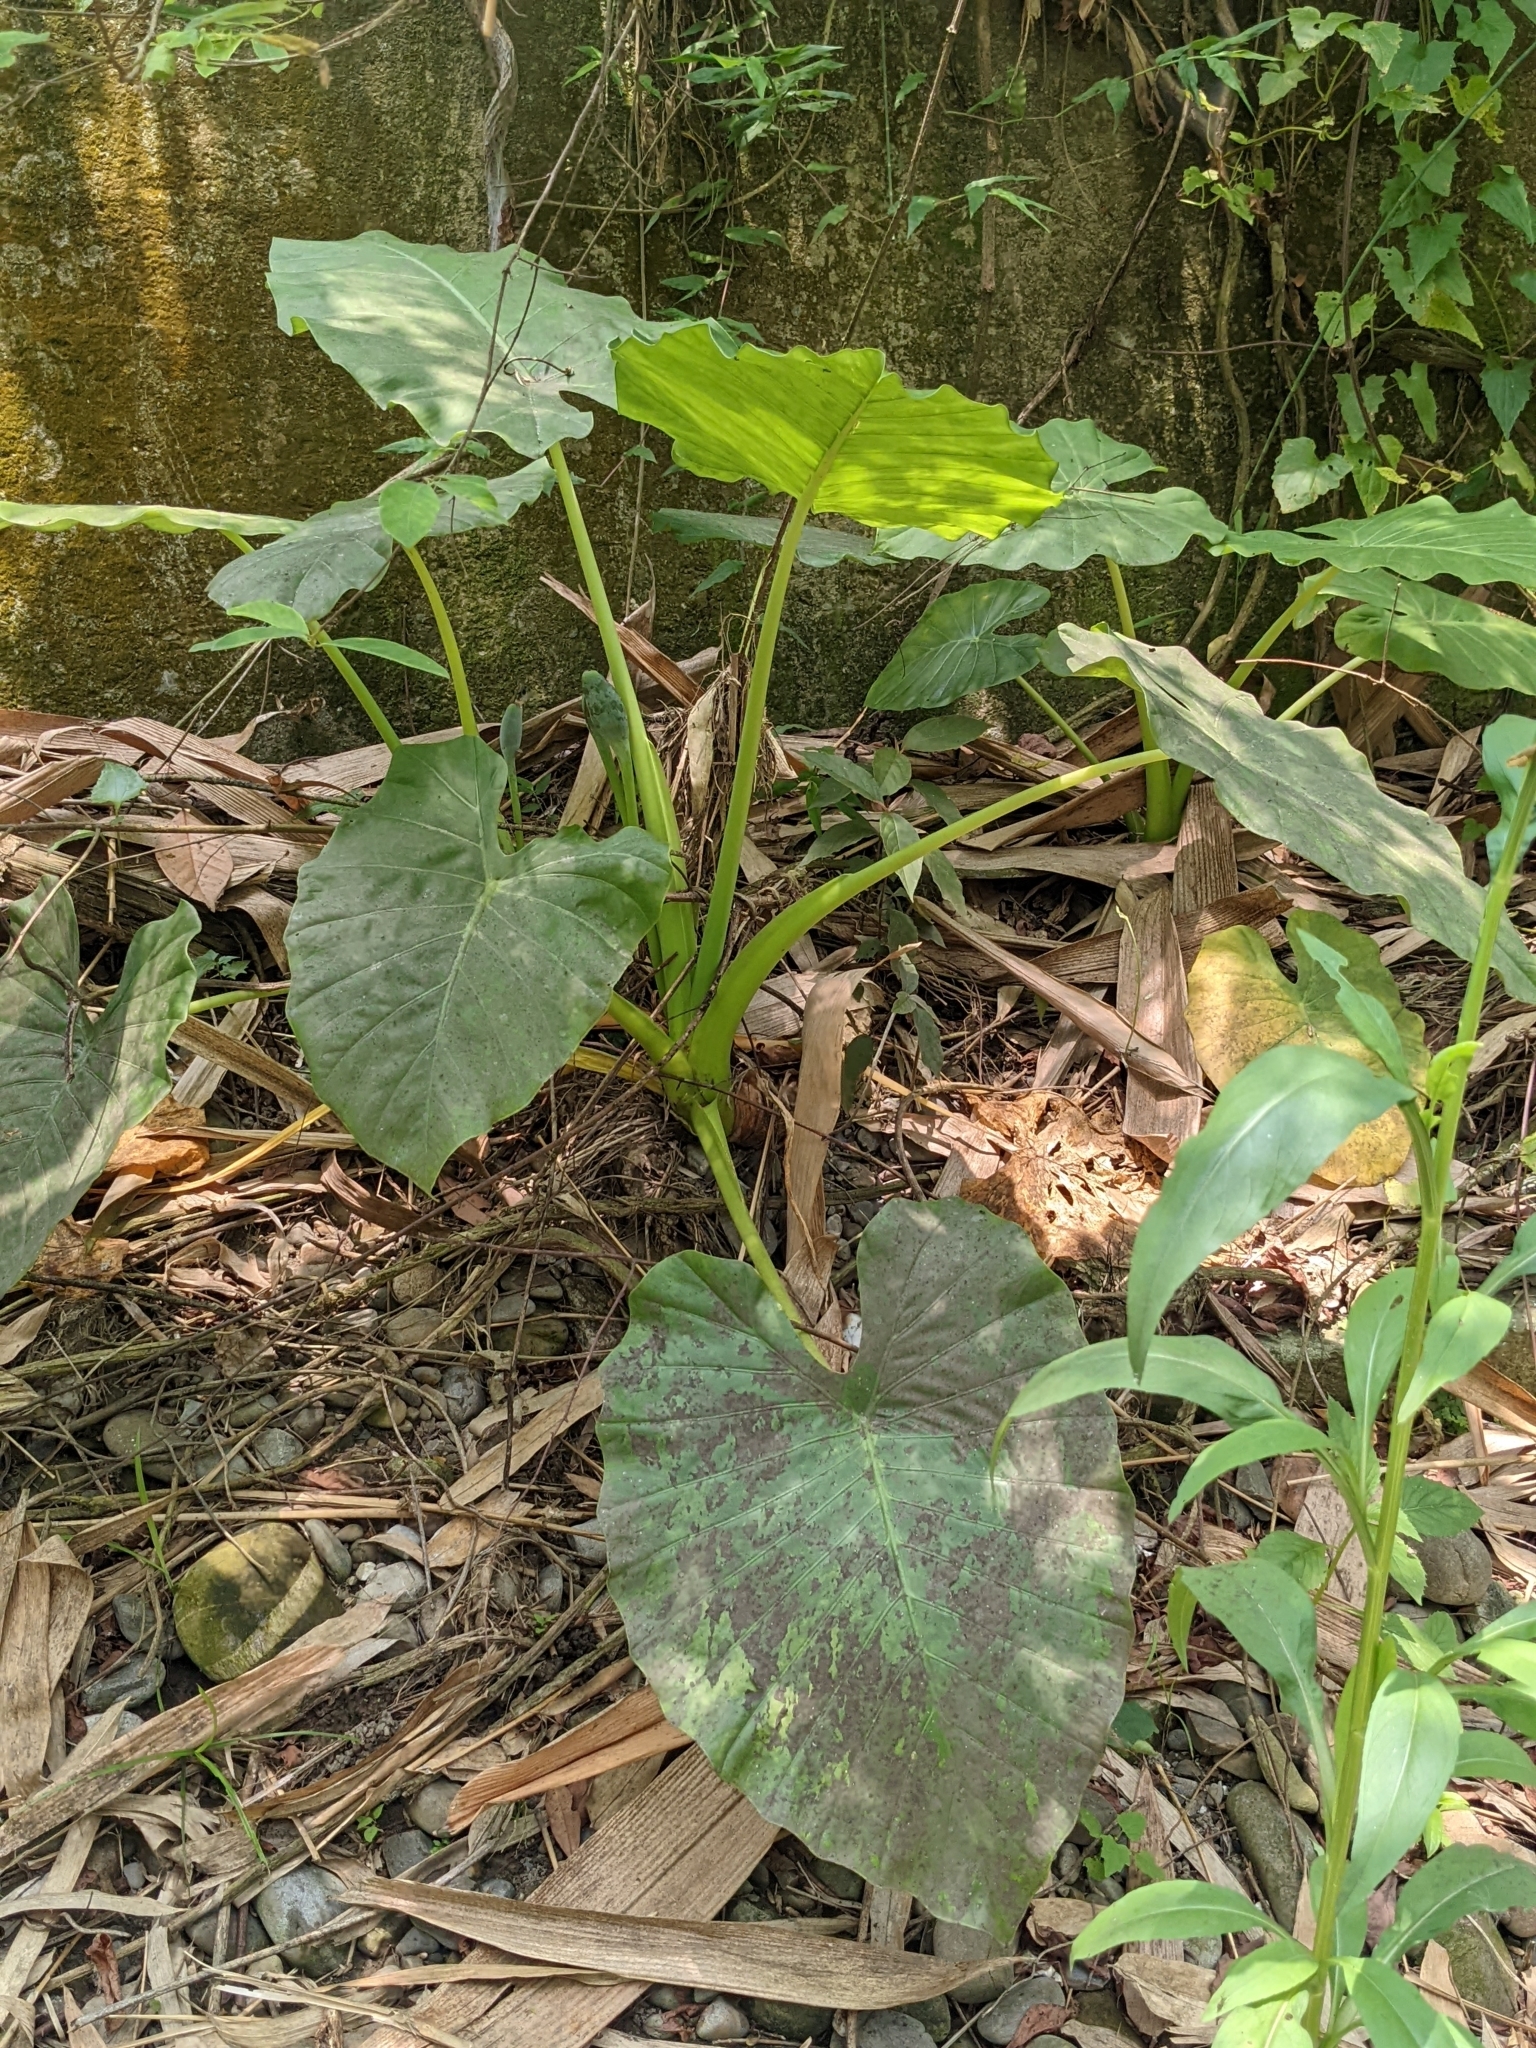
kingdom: Plantae
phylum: Tracheophyta
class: Liliopsida
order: Alismatales
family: Araceae
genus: Alocasia
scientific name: Alocasia odora
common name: Asian taro
